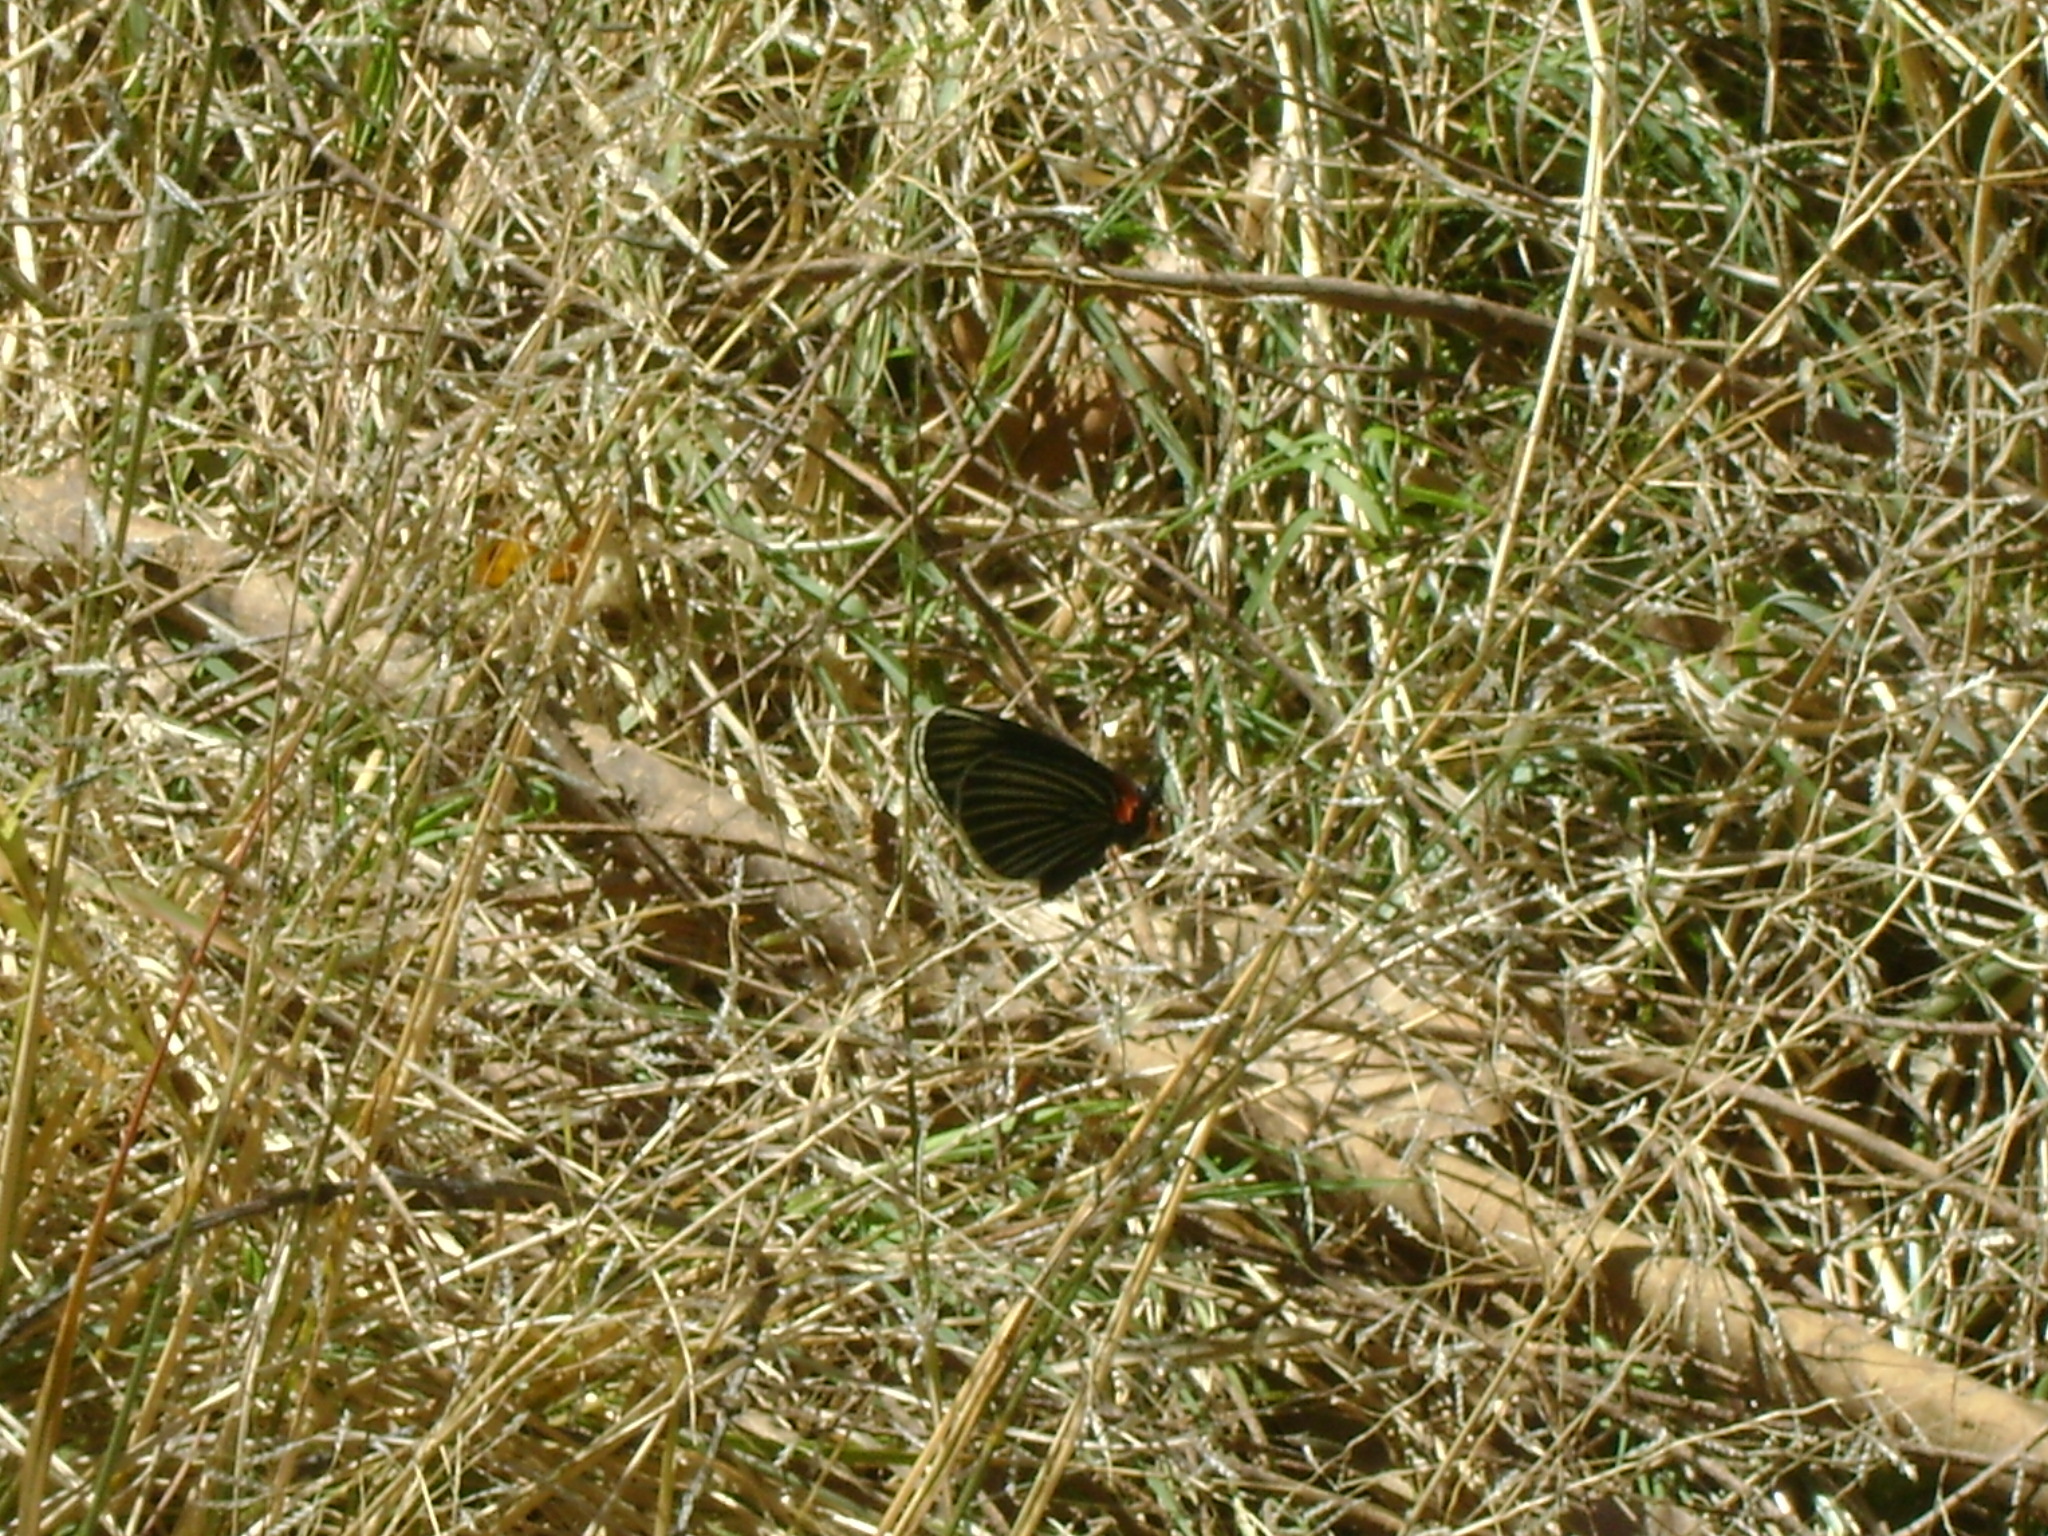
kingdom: Animalia
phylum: Arthropoda
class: Insecta
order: Lepidoptera
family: Nymphalidae
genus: Chlosyne
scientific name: Chlosyne ehrenbergii
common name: White-rayed patch
